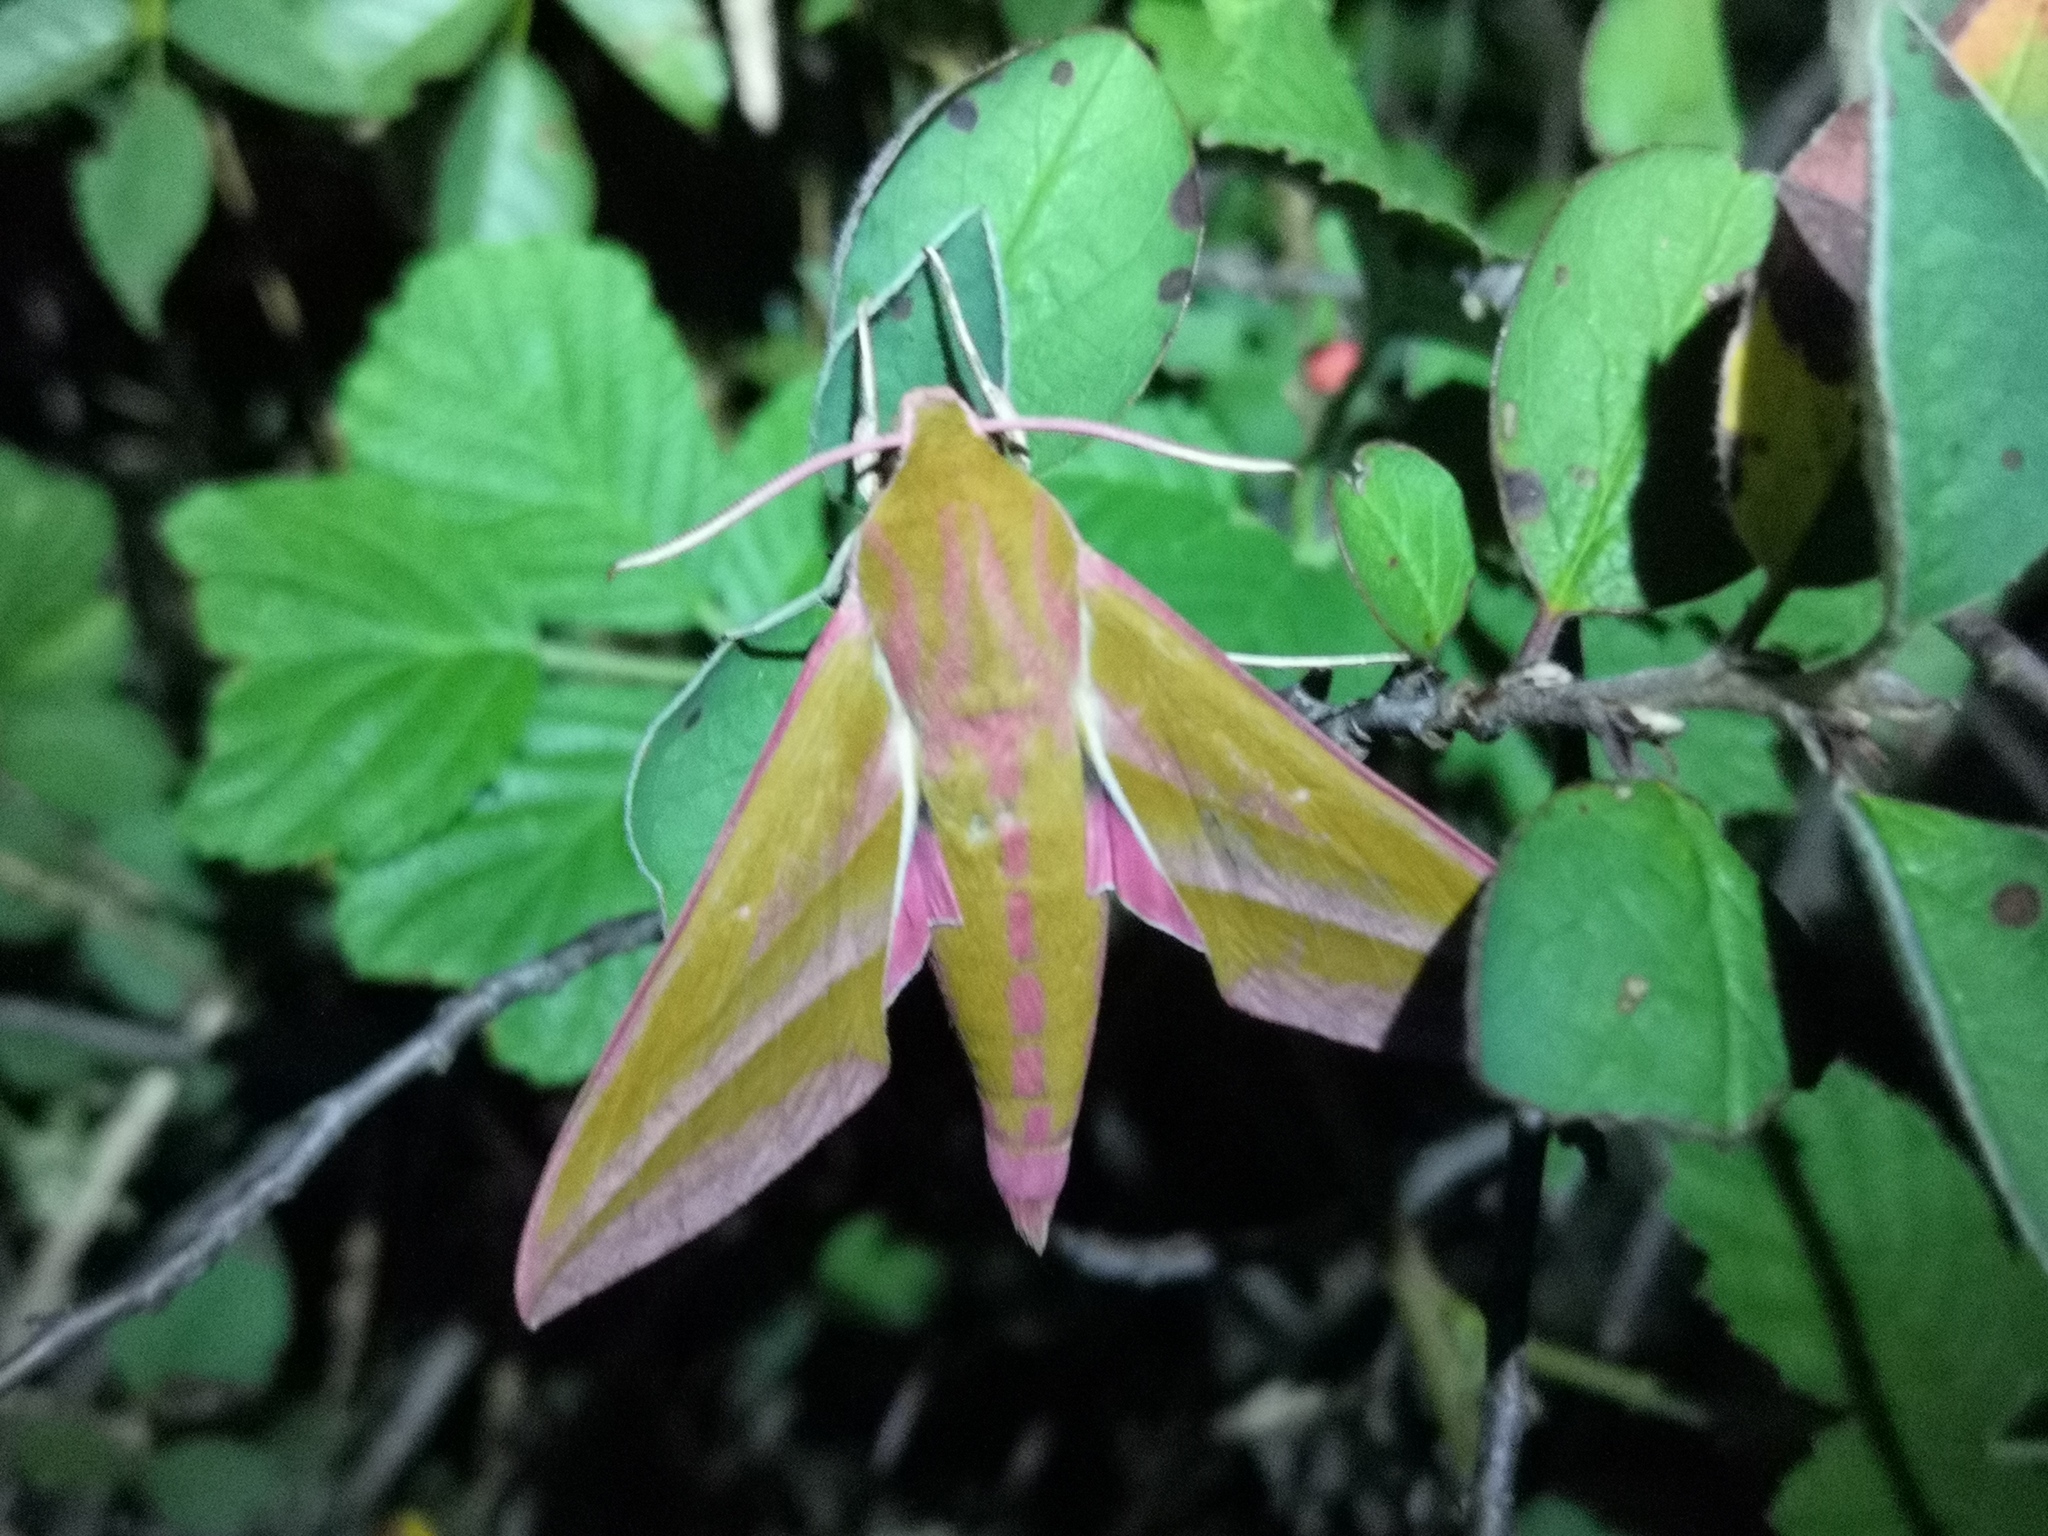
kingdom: Animalia
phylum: Arthropoda
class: Insecta
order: Lepidoptera
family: Sphingidae
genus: Deilephila
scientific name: Deilephila elpenor
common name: Elephant hawk-moth
